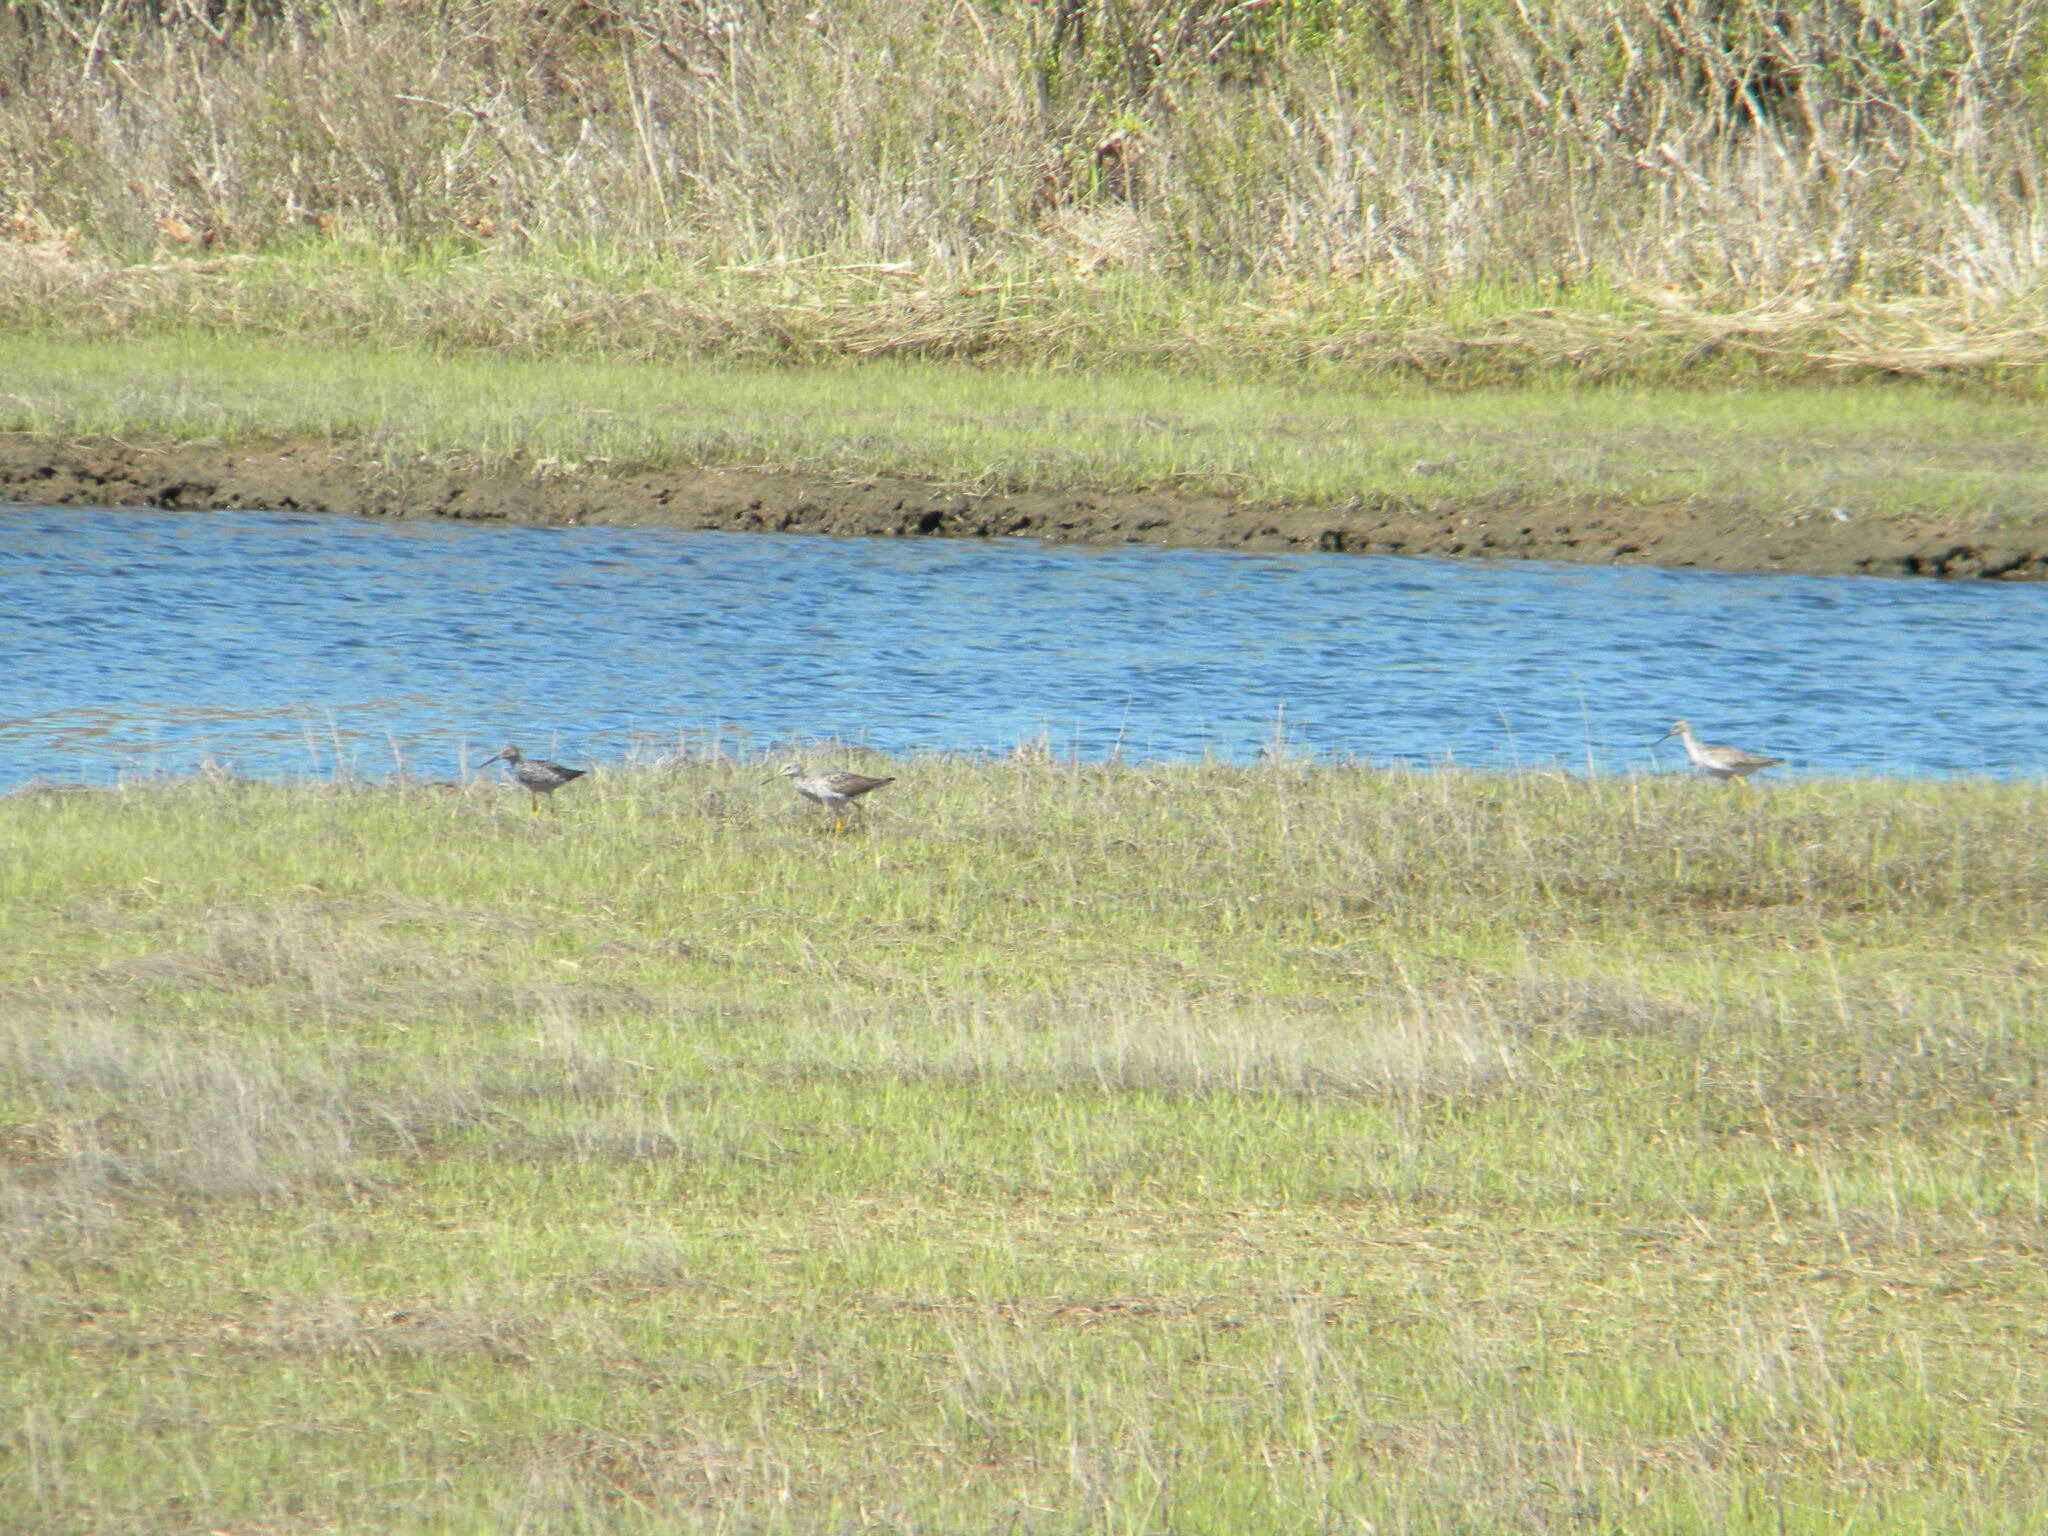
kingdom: Animalia
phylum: Chordata
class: Aves
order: Charadriiformes
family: Scolopacidae
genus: Tringa
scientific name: Tringa melanoleuca
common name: Greater yellowlegs
